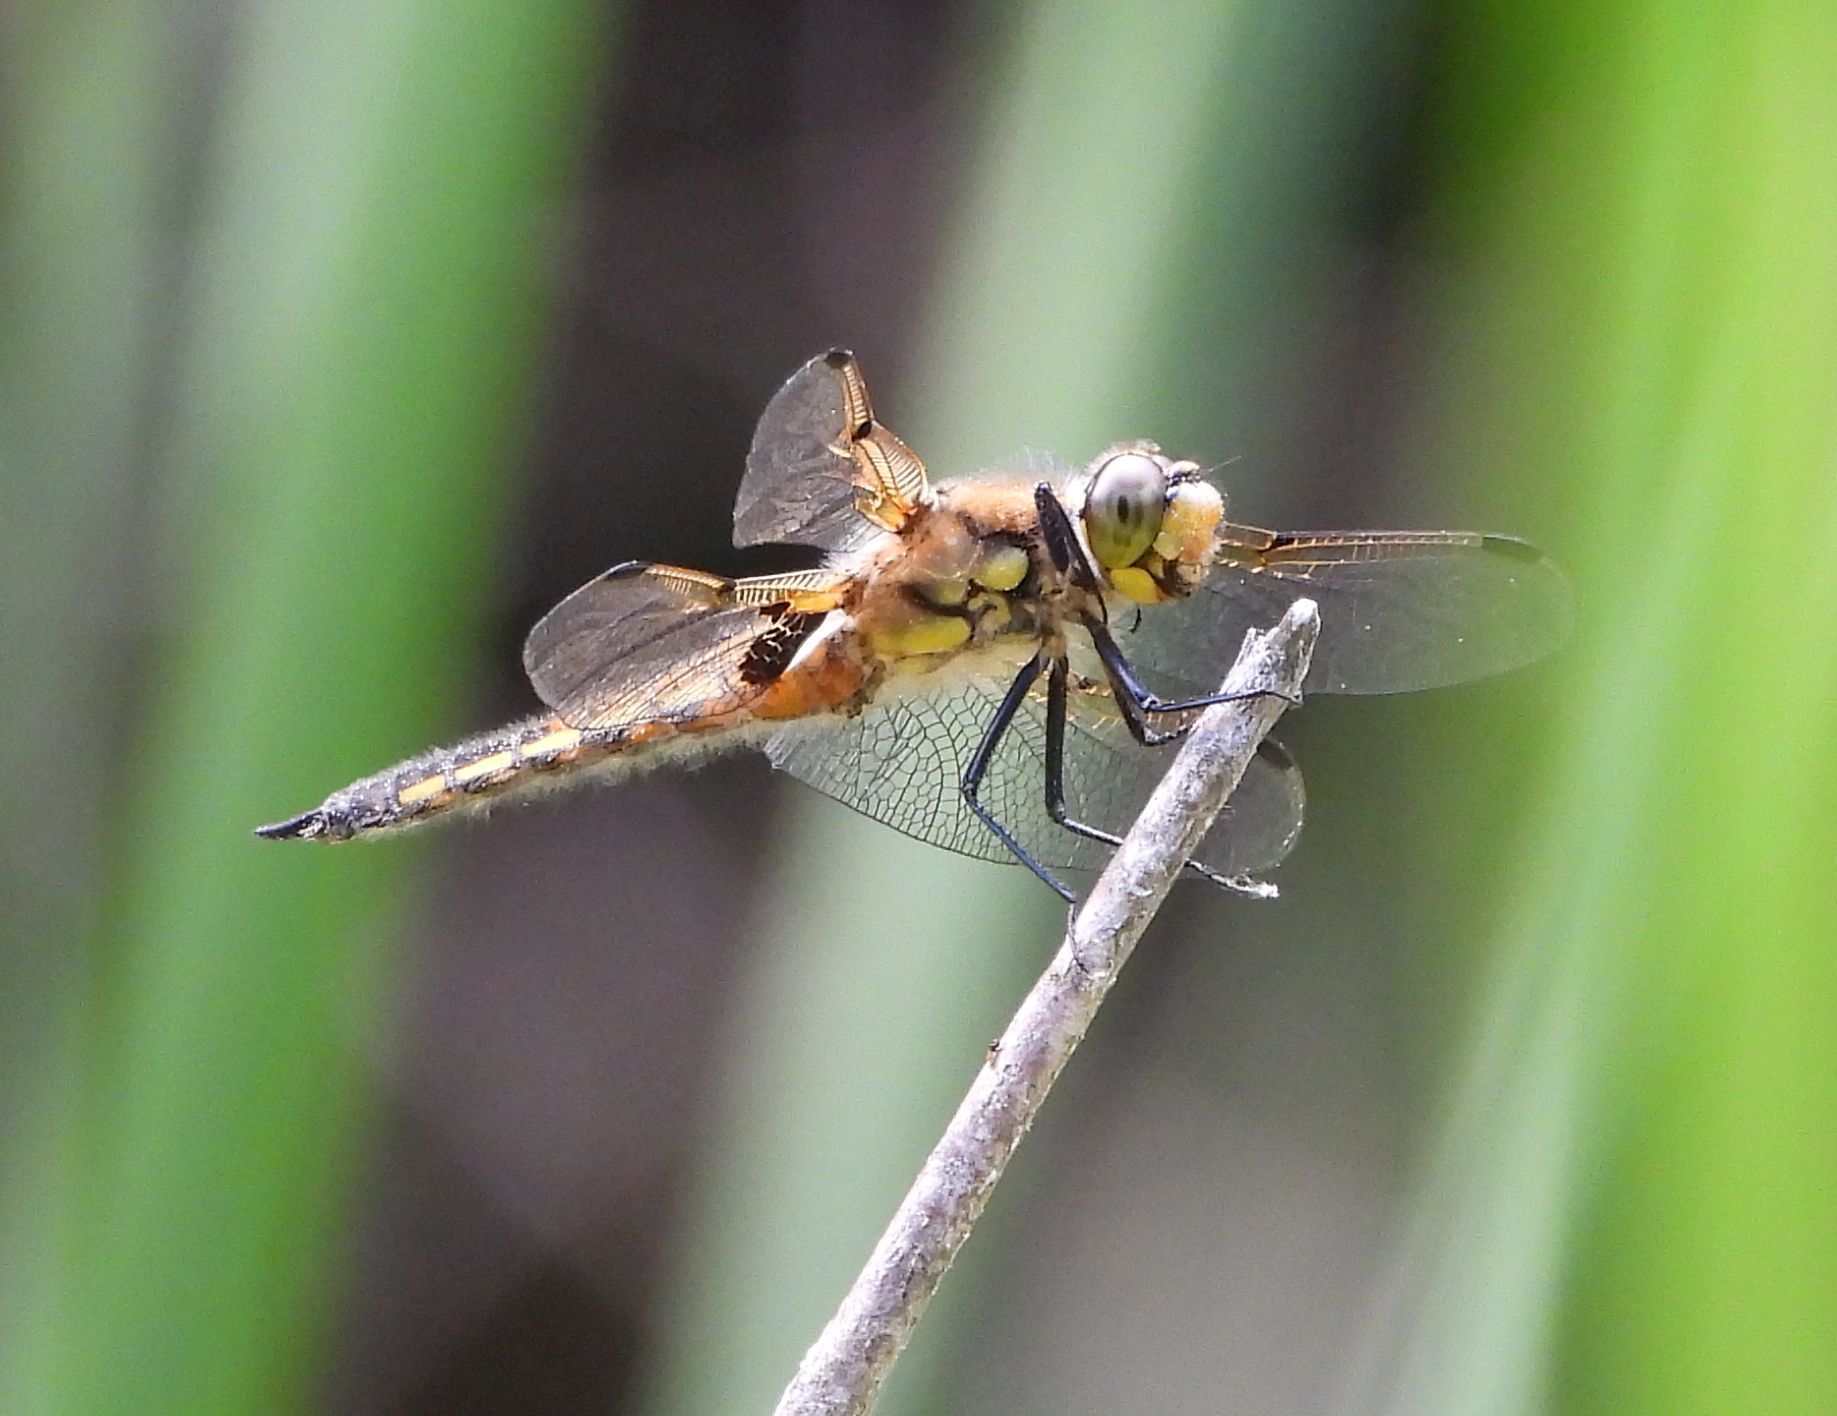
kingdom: Animalia
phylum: Arthropoda
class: Insecta
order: Odonata
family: Libellulidae
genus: Libellula
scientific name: Libellula quadrimaculata
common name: Four-spotted chaser
